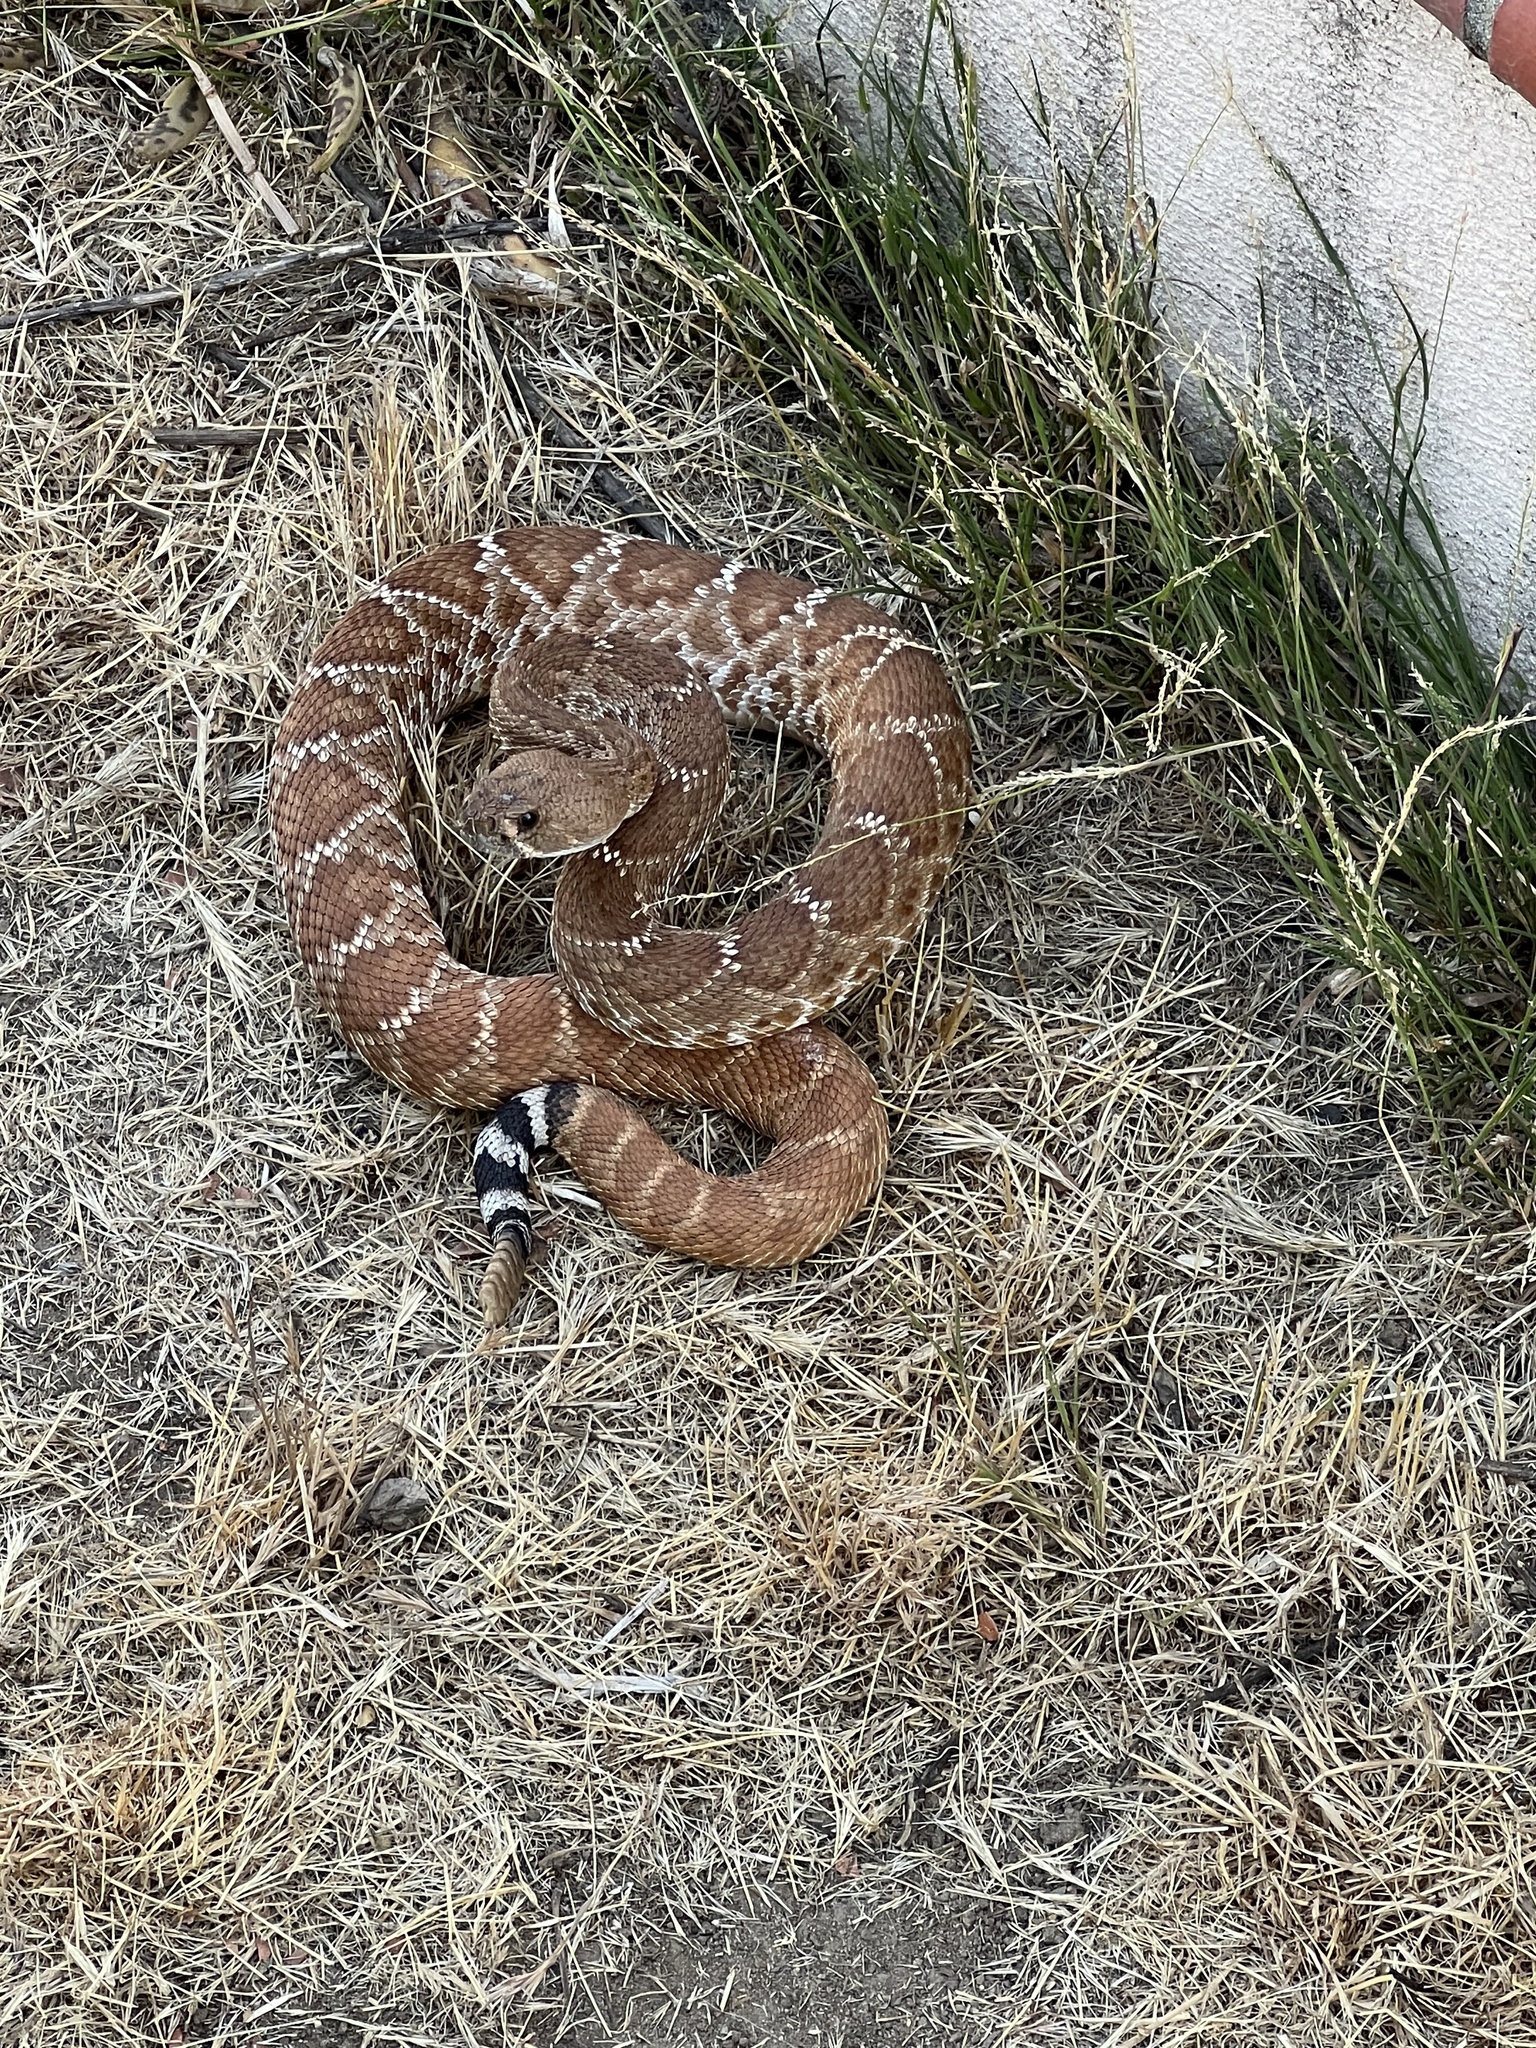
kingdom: Animalia
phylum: Chordata
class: Squamata
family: Viperidae
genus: Crotalus
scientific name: Crotalus ruber
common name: Red diamond rattlesnake
